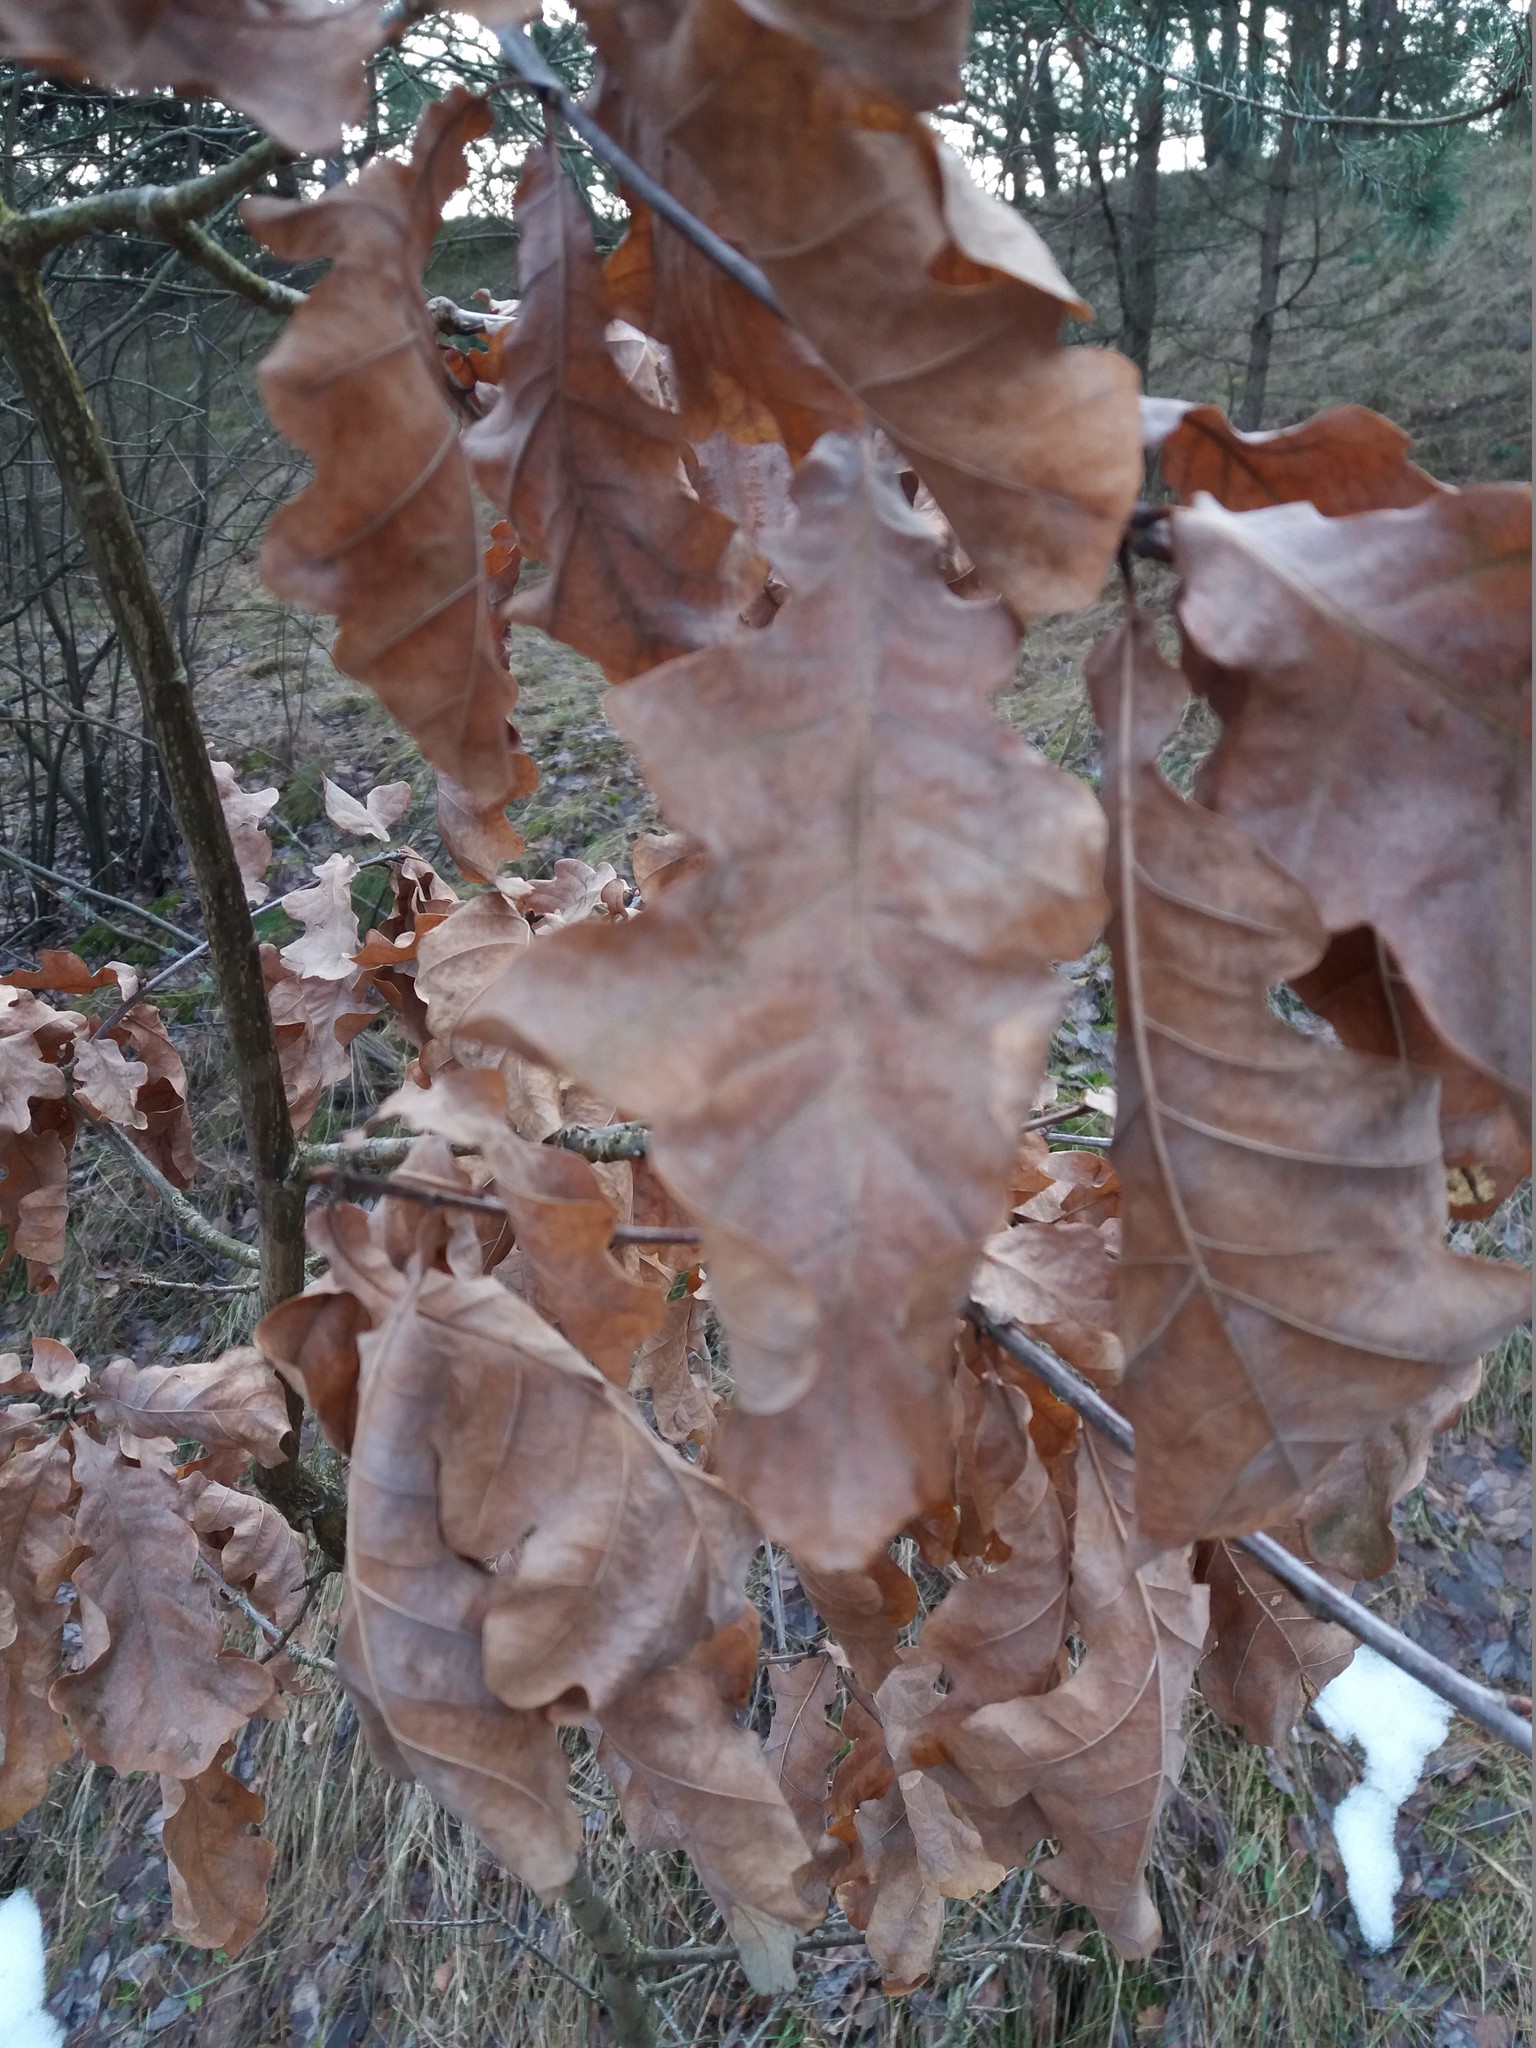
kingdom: Plantae
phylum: Tracheophyta
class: Magnoliopsida
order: Fagales
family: Fagaceae
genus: Quercus
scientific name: Quercus robur
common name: Pedunculate oak
